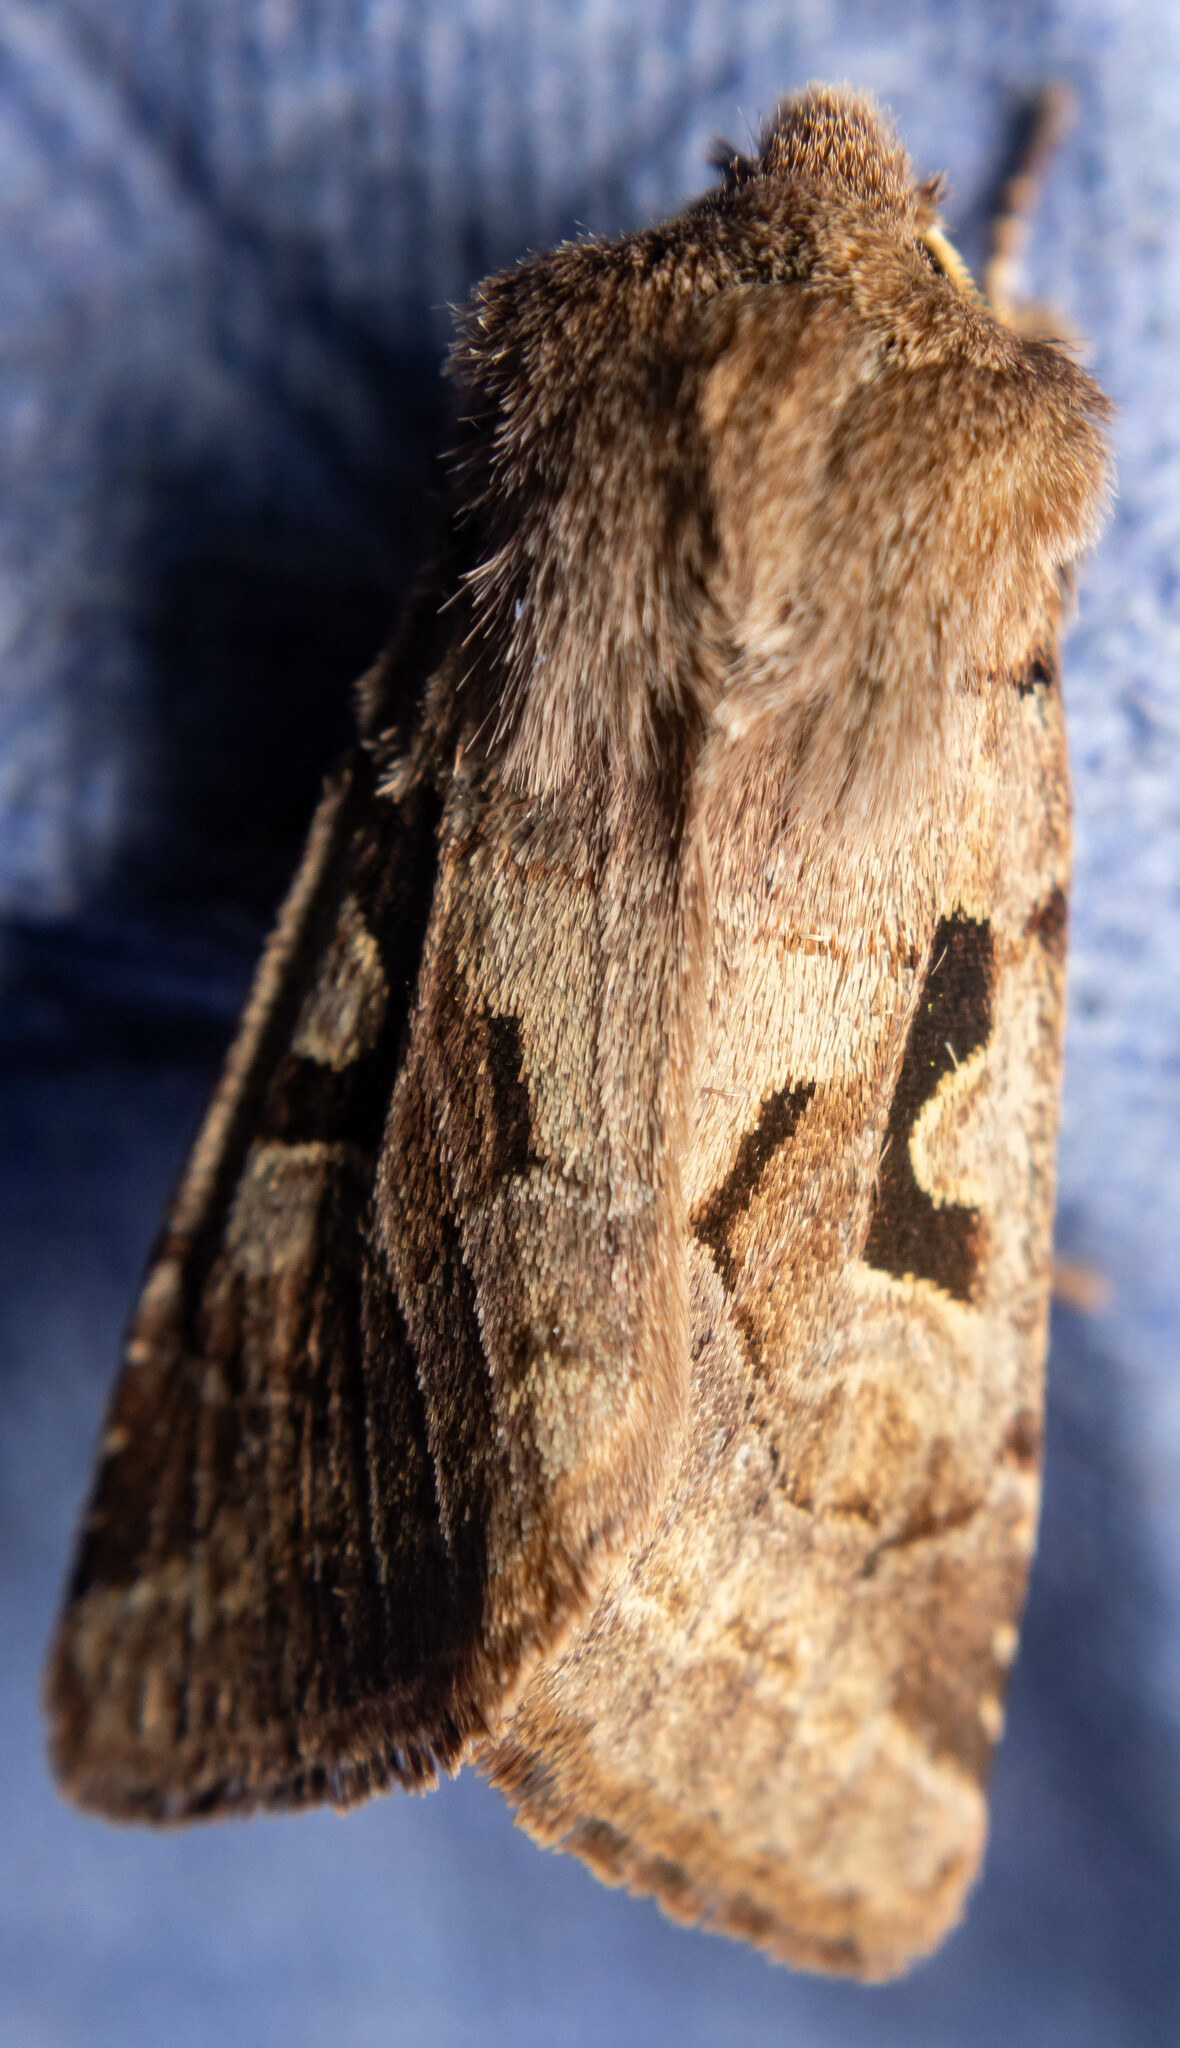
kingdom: Animalia
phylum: Arthropoda
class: Insecta
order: Lepidoptera
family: Noctuidae
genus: Orthosia
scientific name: Orthosia gothica
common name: Hebrew character
